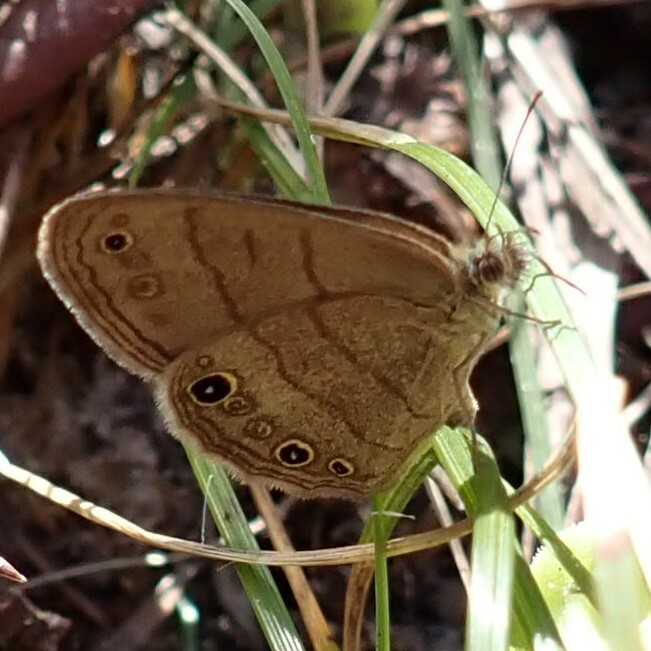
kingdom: Animalia
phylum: Arthropoda
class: Insecta
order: Lepidoptera
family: Nymphalidae
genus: Hermeuptychia
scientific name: Hermeuptychia hermes
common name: Hermes satyr
